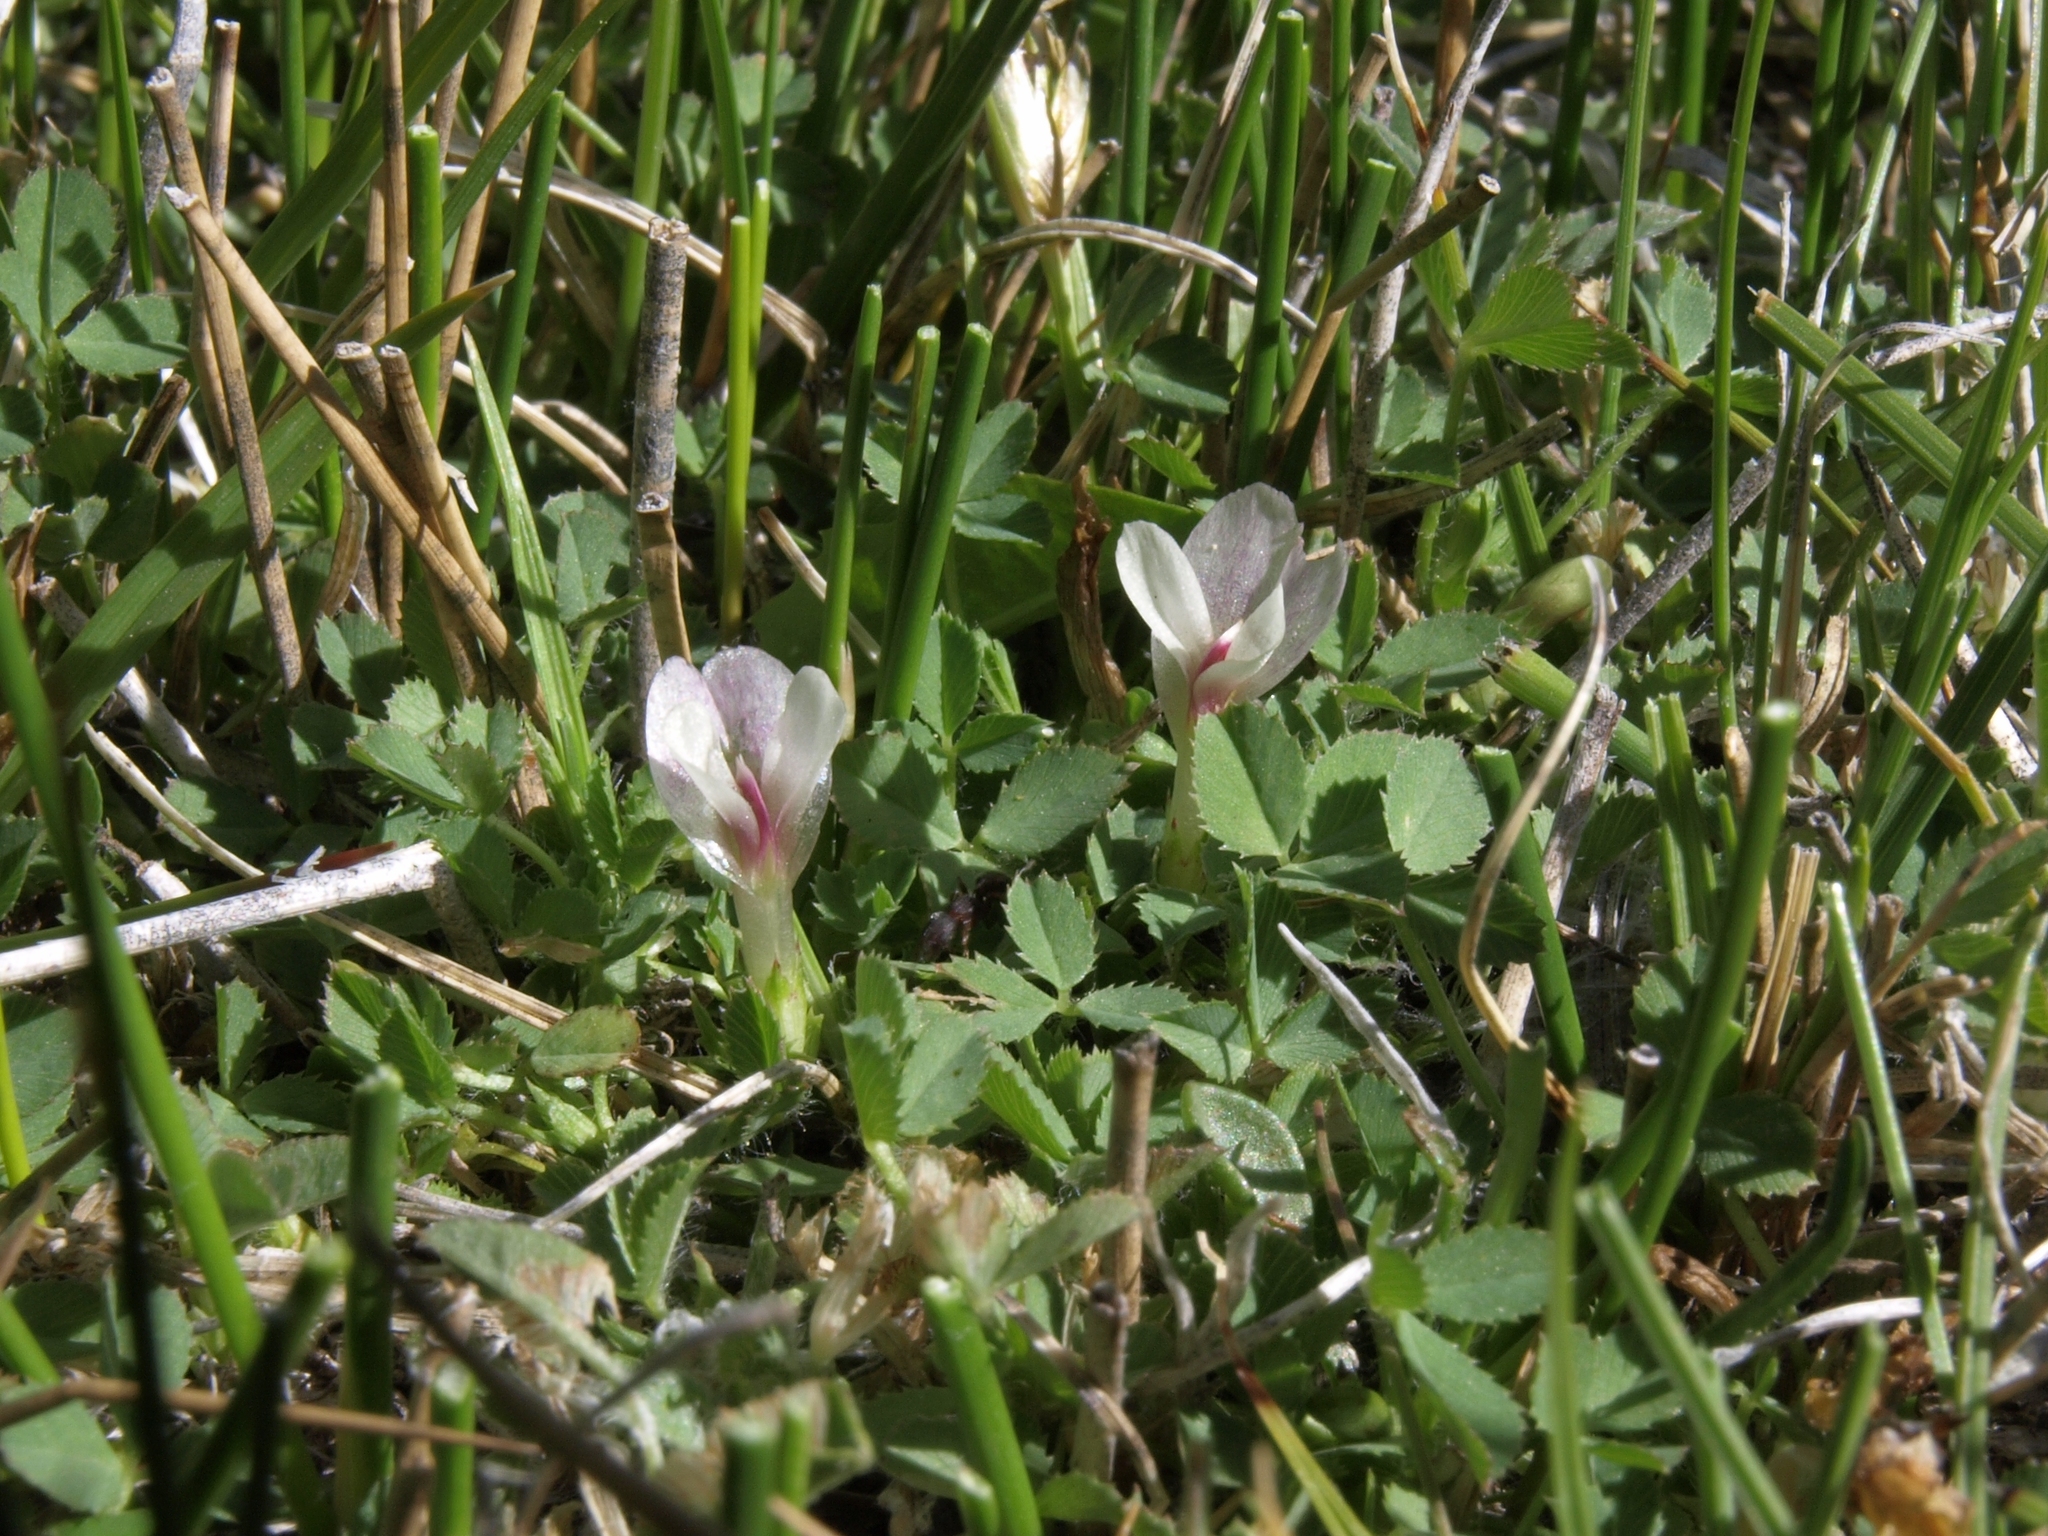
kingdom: Plantae
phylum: Tracheophyta
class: Magnoliopsida
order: Fabales
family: Fabaceae
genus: Trifolium
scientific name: Trifolium monanthum
